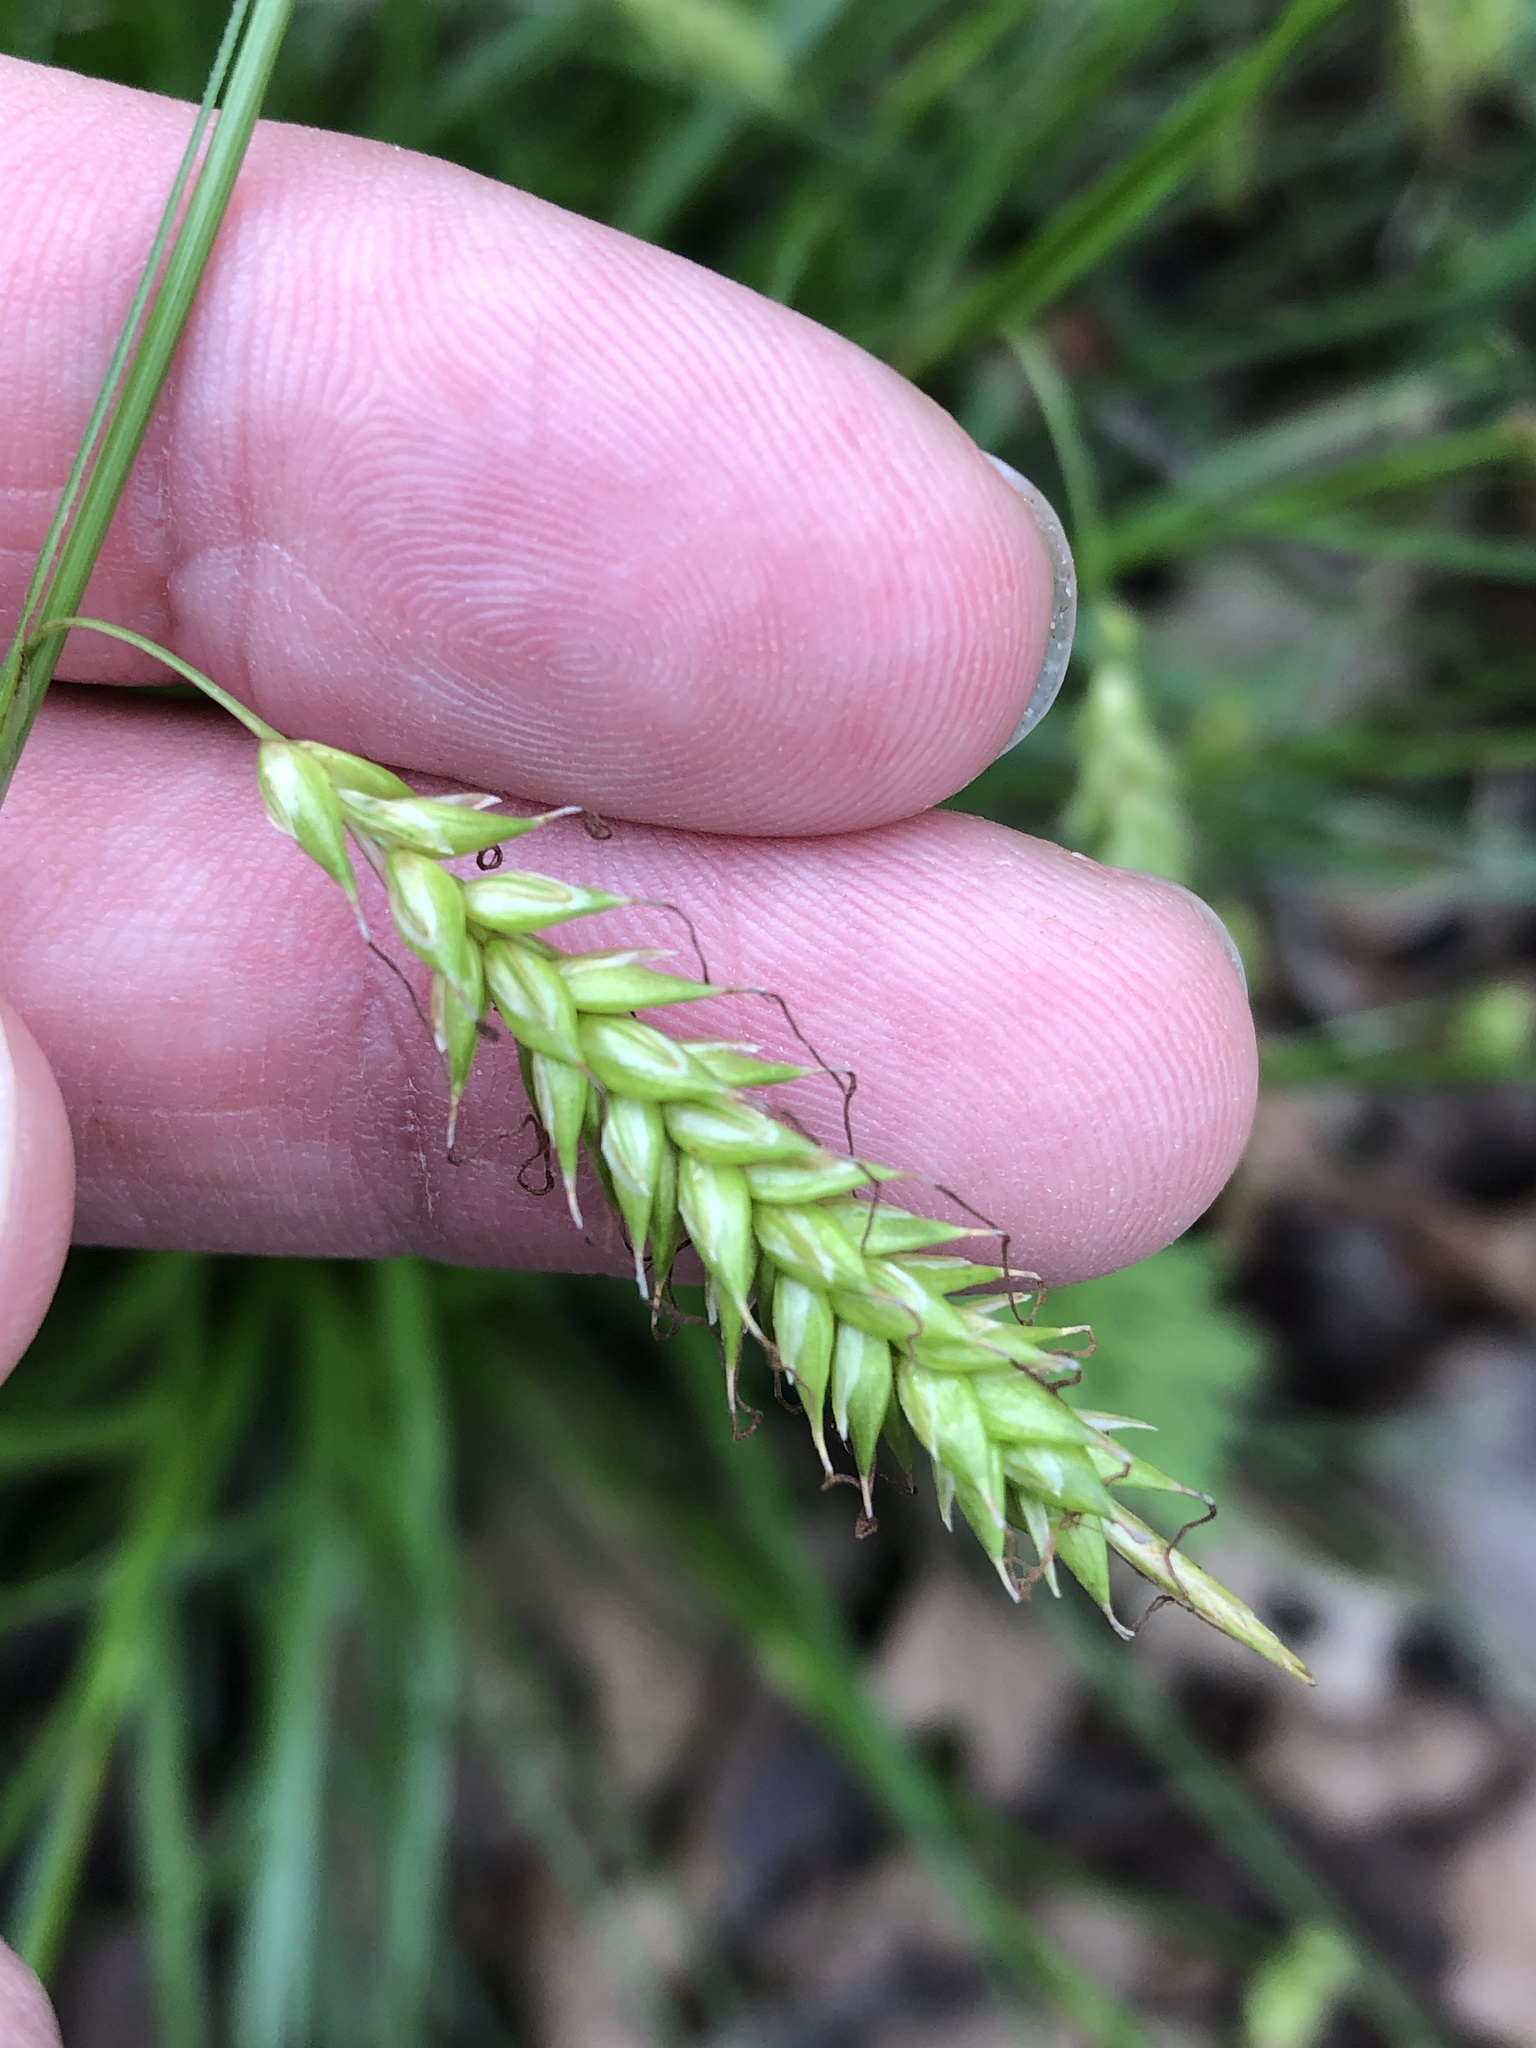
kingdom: Plantae
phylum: Tracheophyta
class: Liliopsida
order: Poales
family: Cyperaceae
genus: Carex
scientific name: Carex cherokeensis
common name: Cherokee sedge
